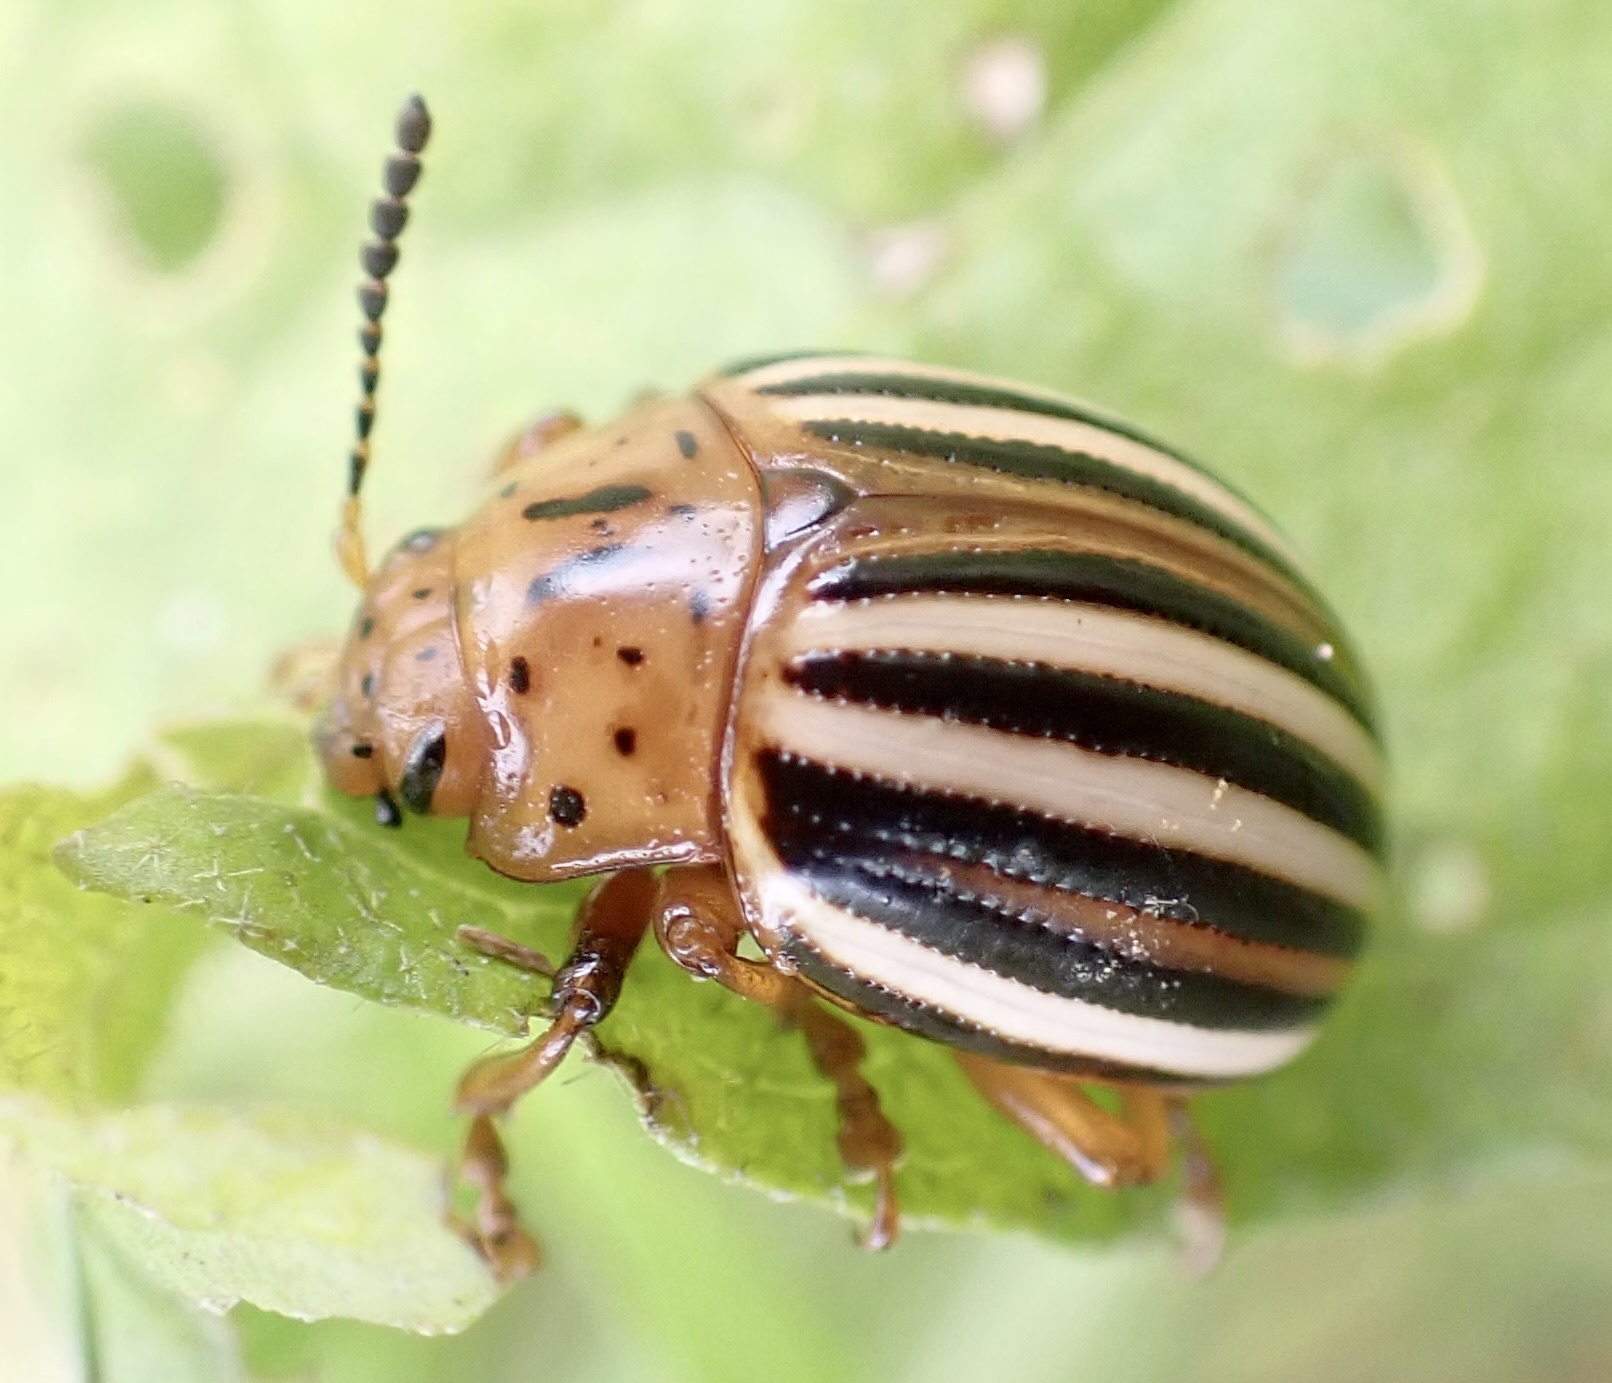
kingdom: Animalia
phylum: Arthropoda
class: Insecta
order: Coleoptera
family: Chrysomelidae
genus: Leptinotarsa
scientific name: Leptinotarsa juncta
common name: False potato beetle
